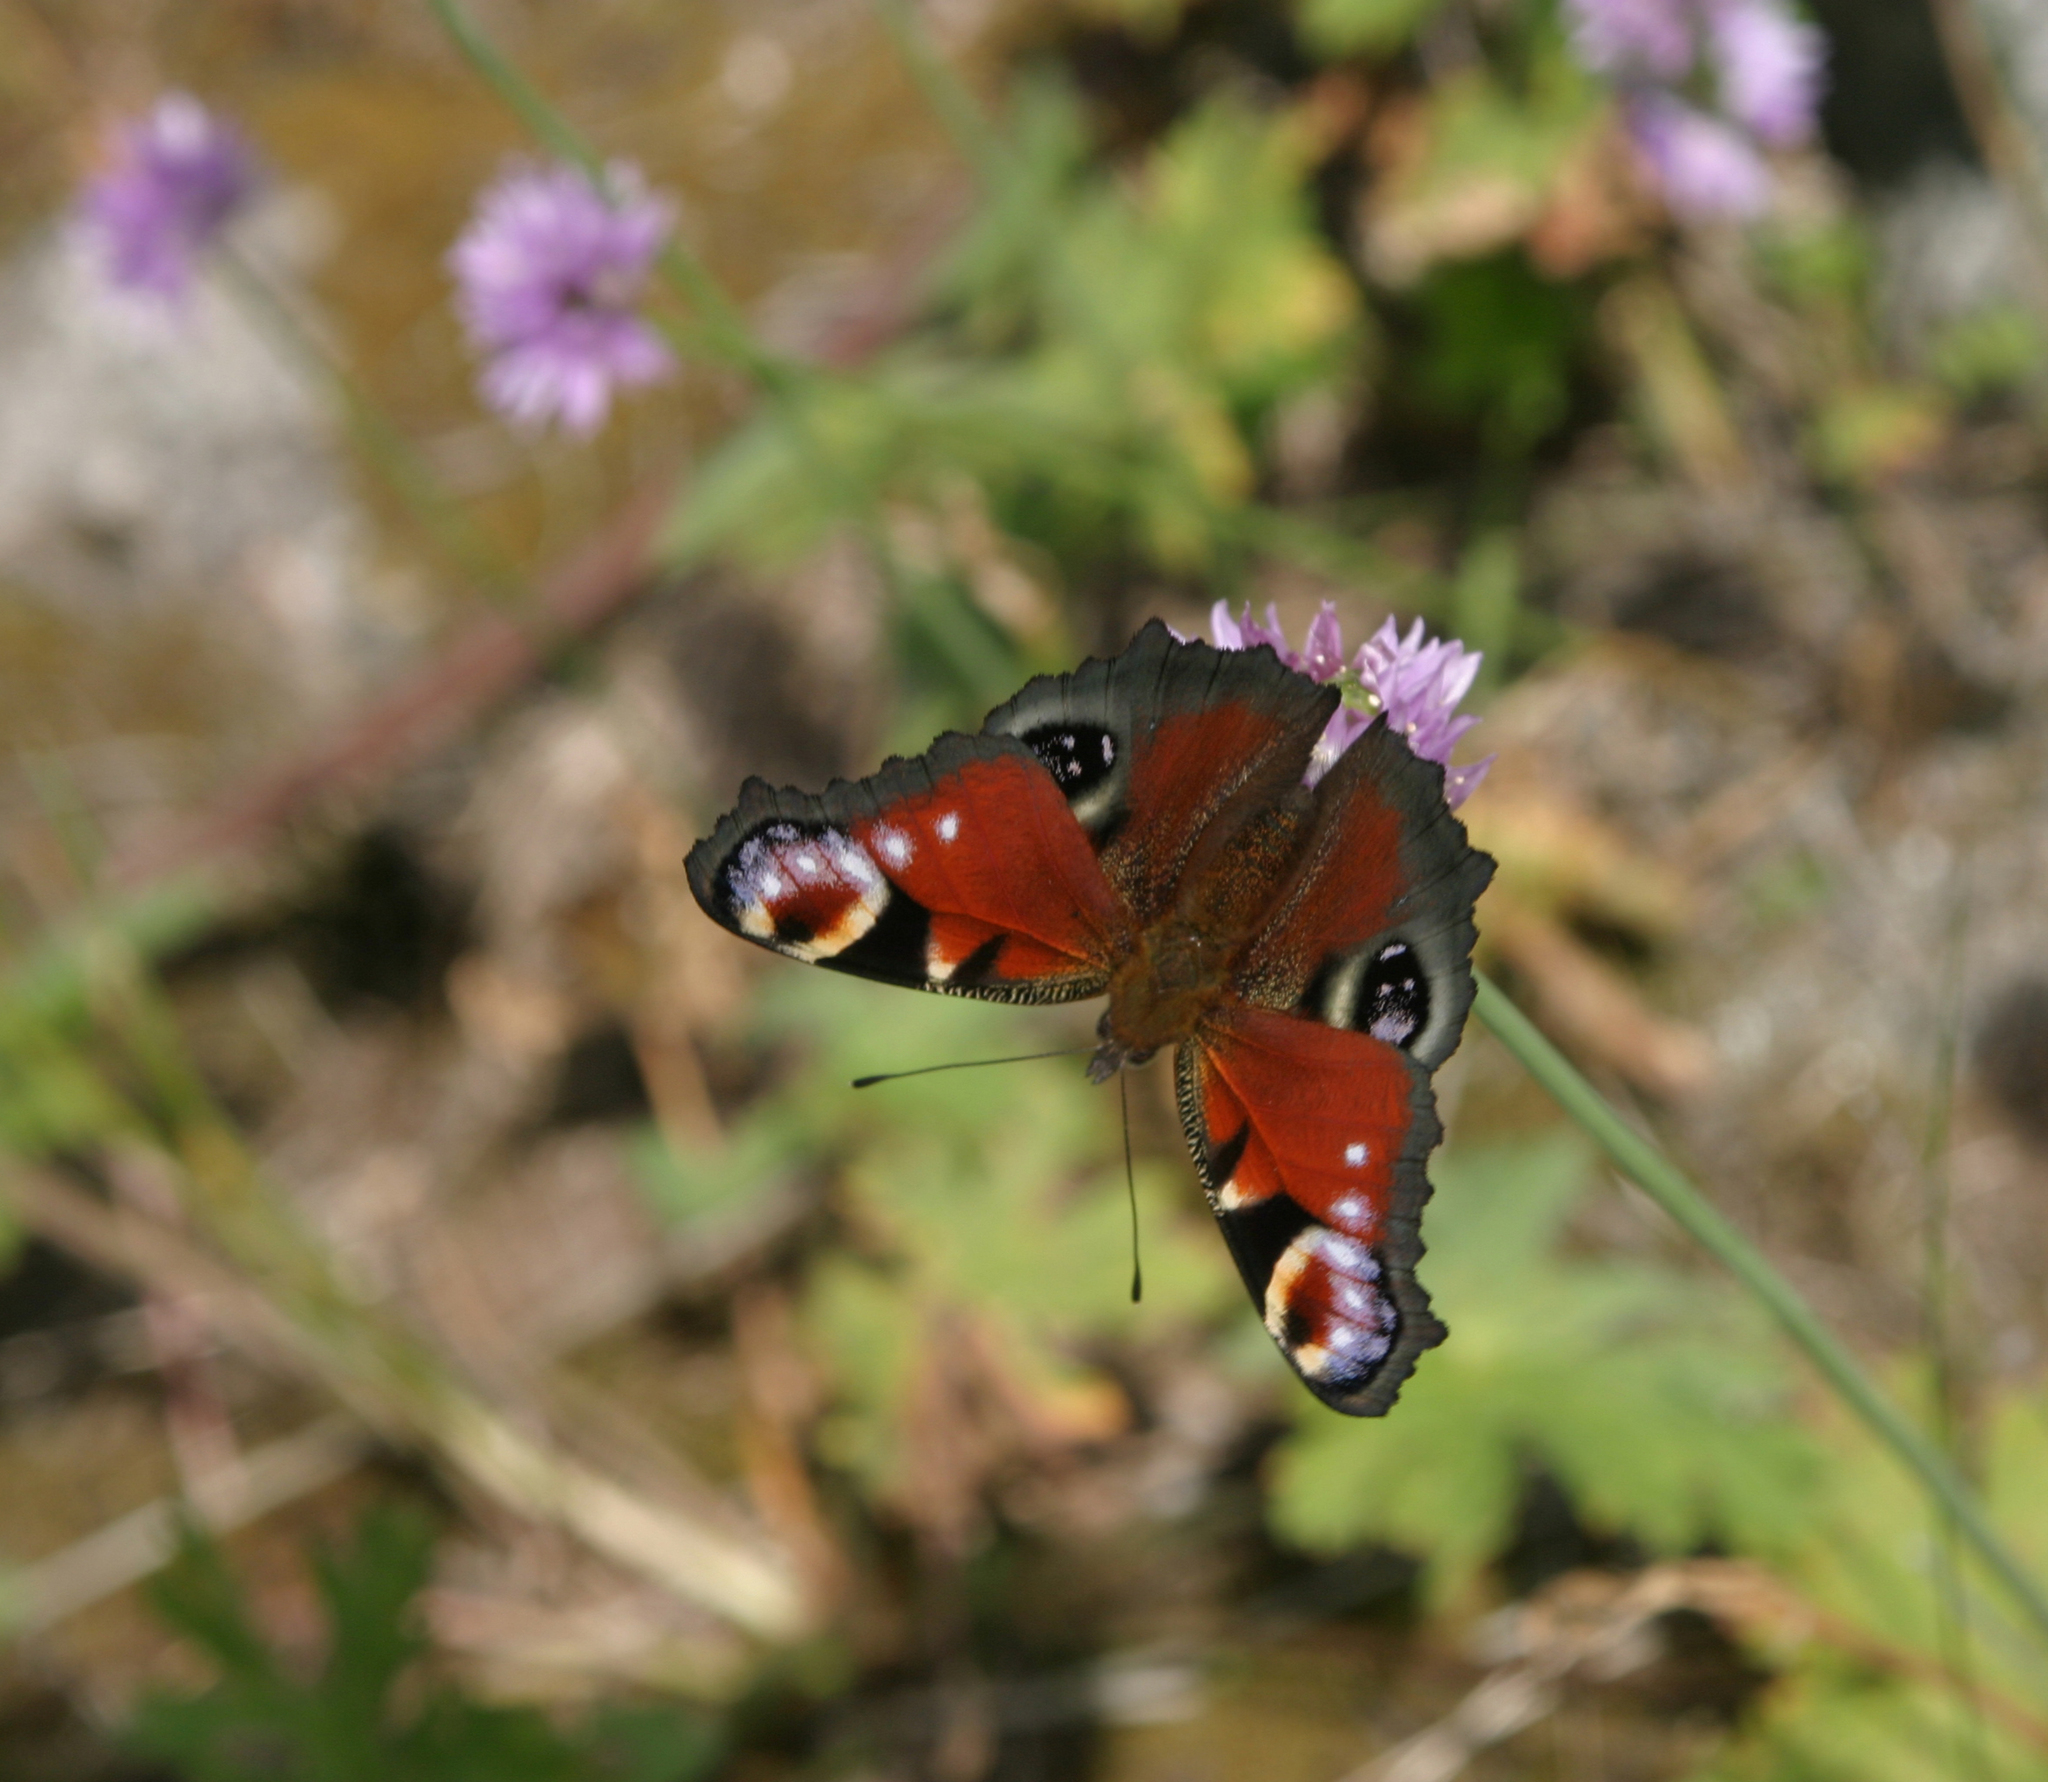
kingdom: Animalia
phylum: Arthropoda
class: Insecta
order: Lepidoptera
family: Nymphalidae
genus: Aglais
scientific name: Aglais io
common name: Peacock
